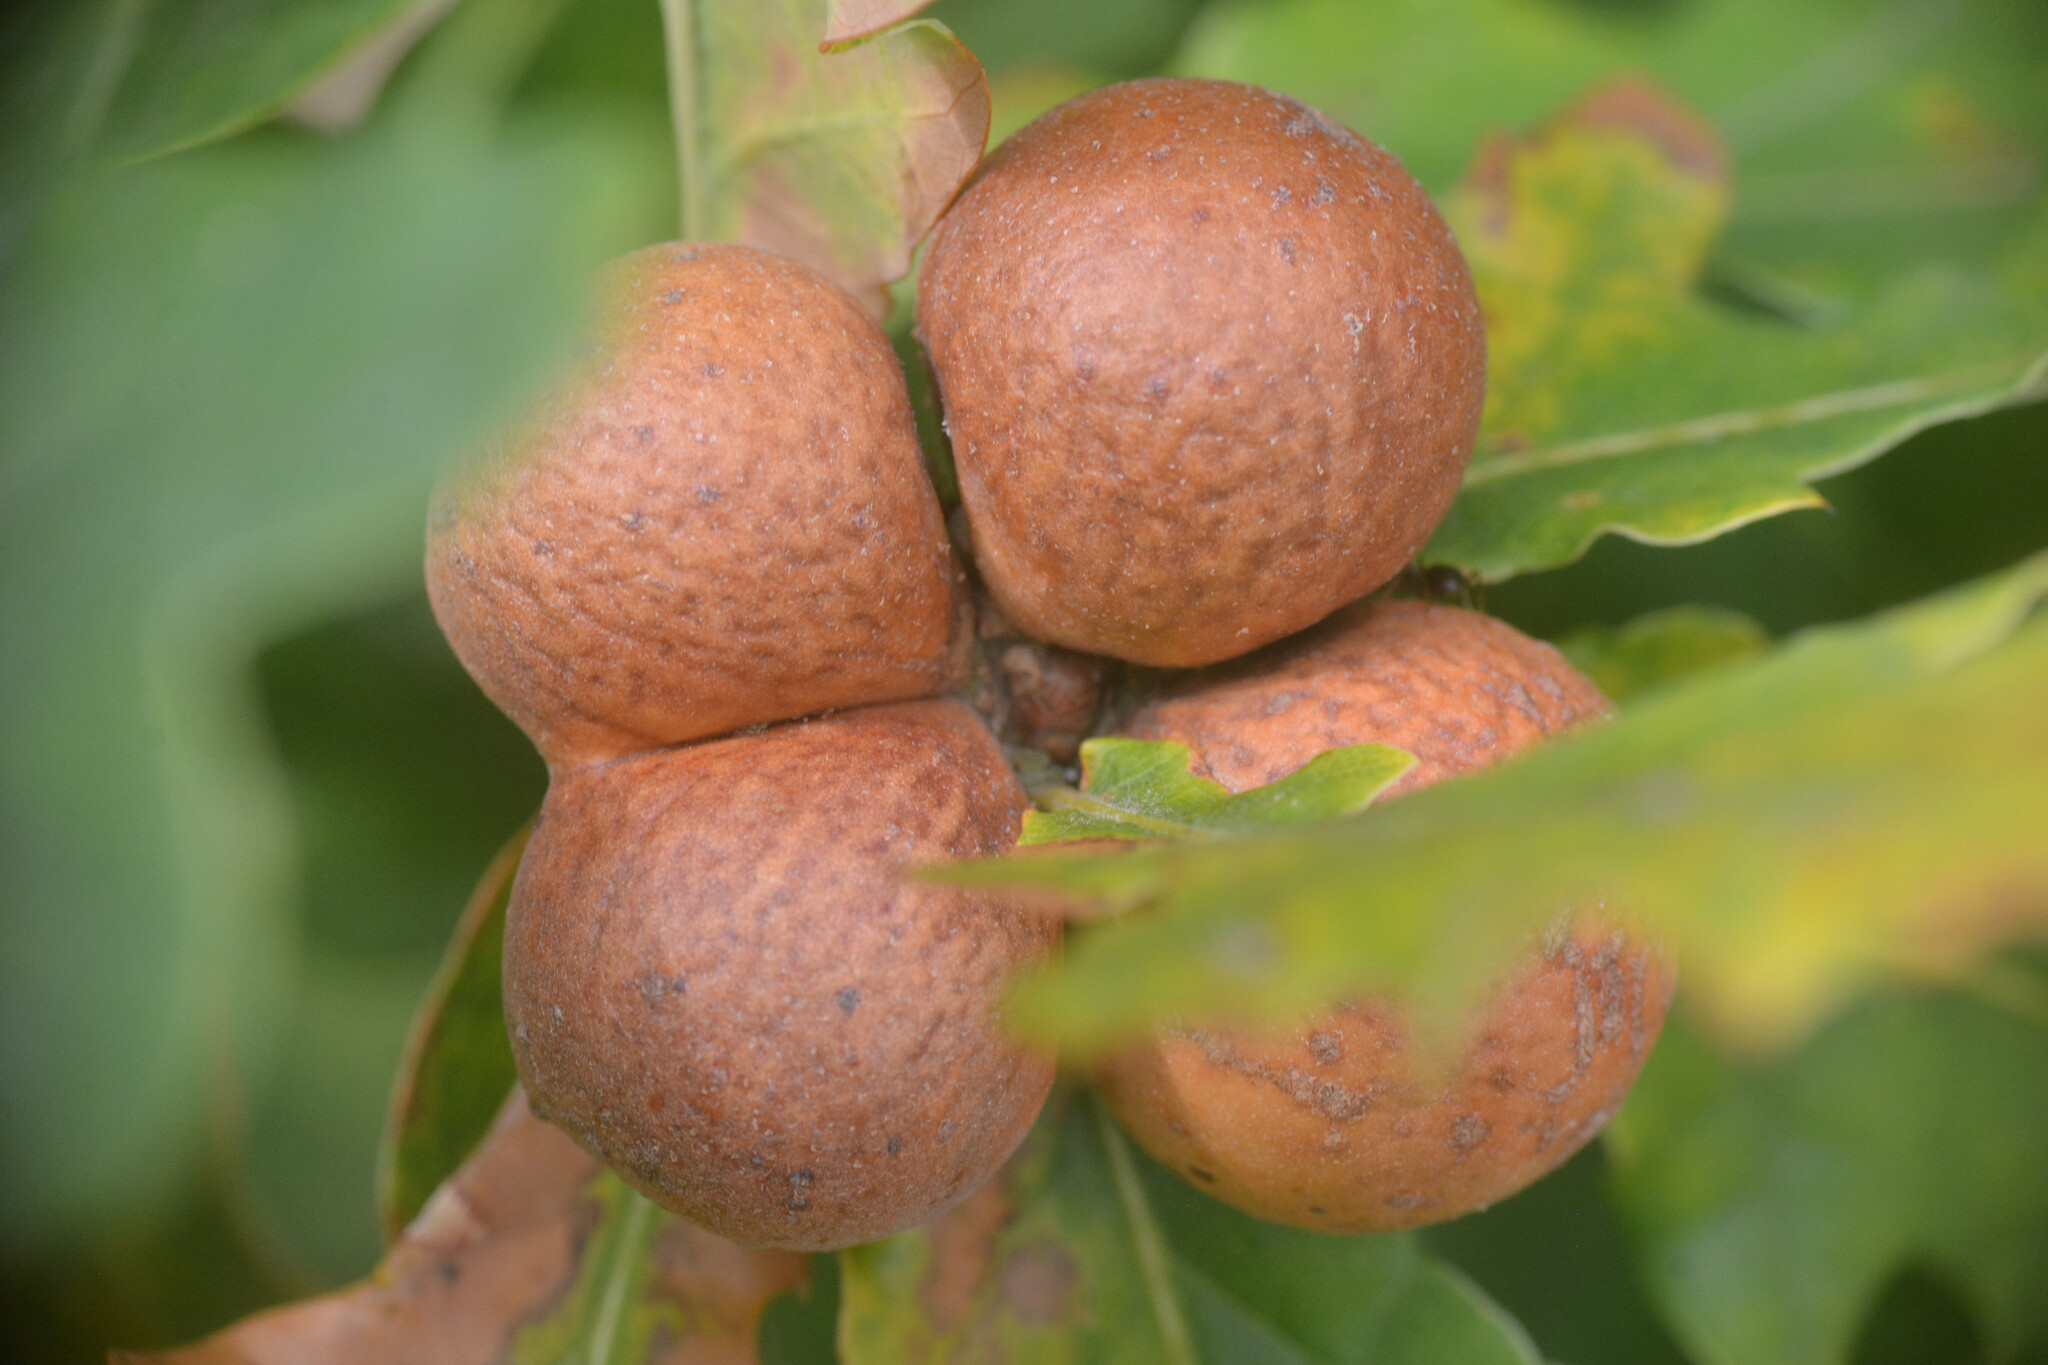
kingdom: Animalia
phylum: Arthropoda
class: Insecta
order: Hymenoptera
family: Cynipidae
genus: Andricus
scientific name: Andricus kollari
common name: Marble gall
